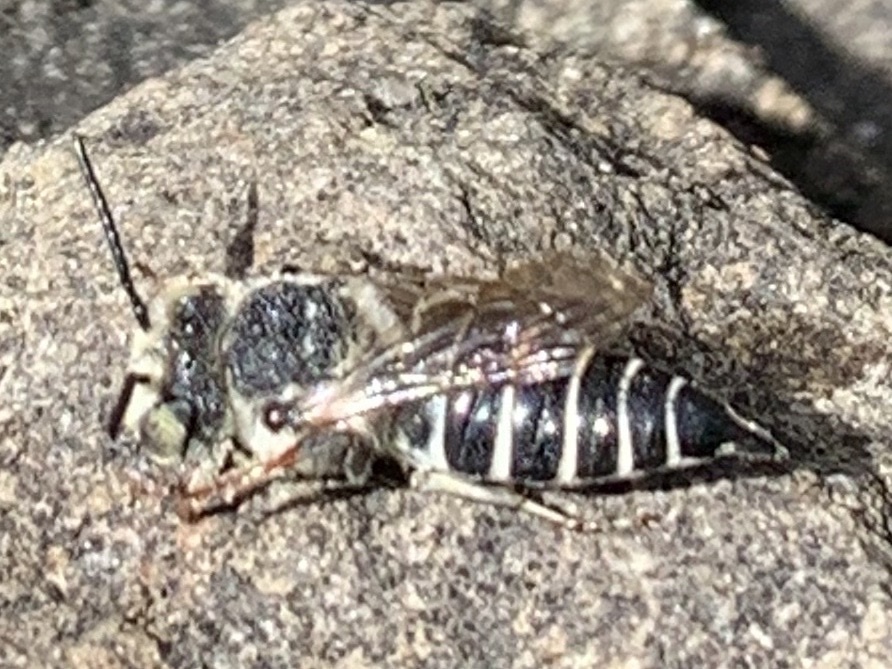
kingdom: Animalia
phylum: Arthropoda
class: Insecta
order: Hymenoptera
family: Megachilidae
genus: Coelioxys
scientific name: Coelioxys rufitarsis
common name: Red-footed sharptail
